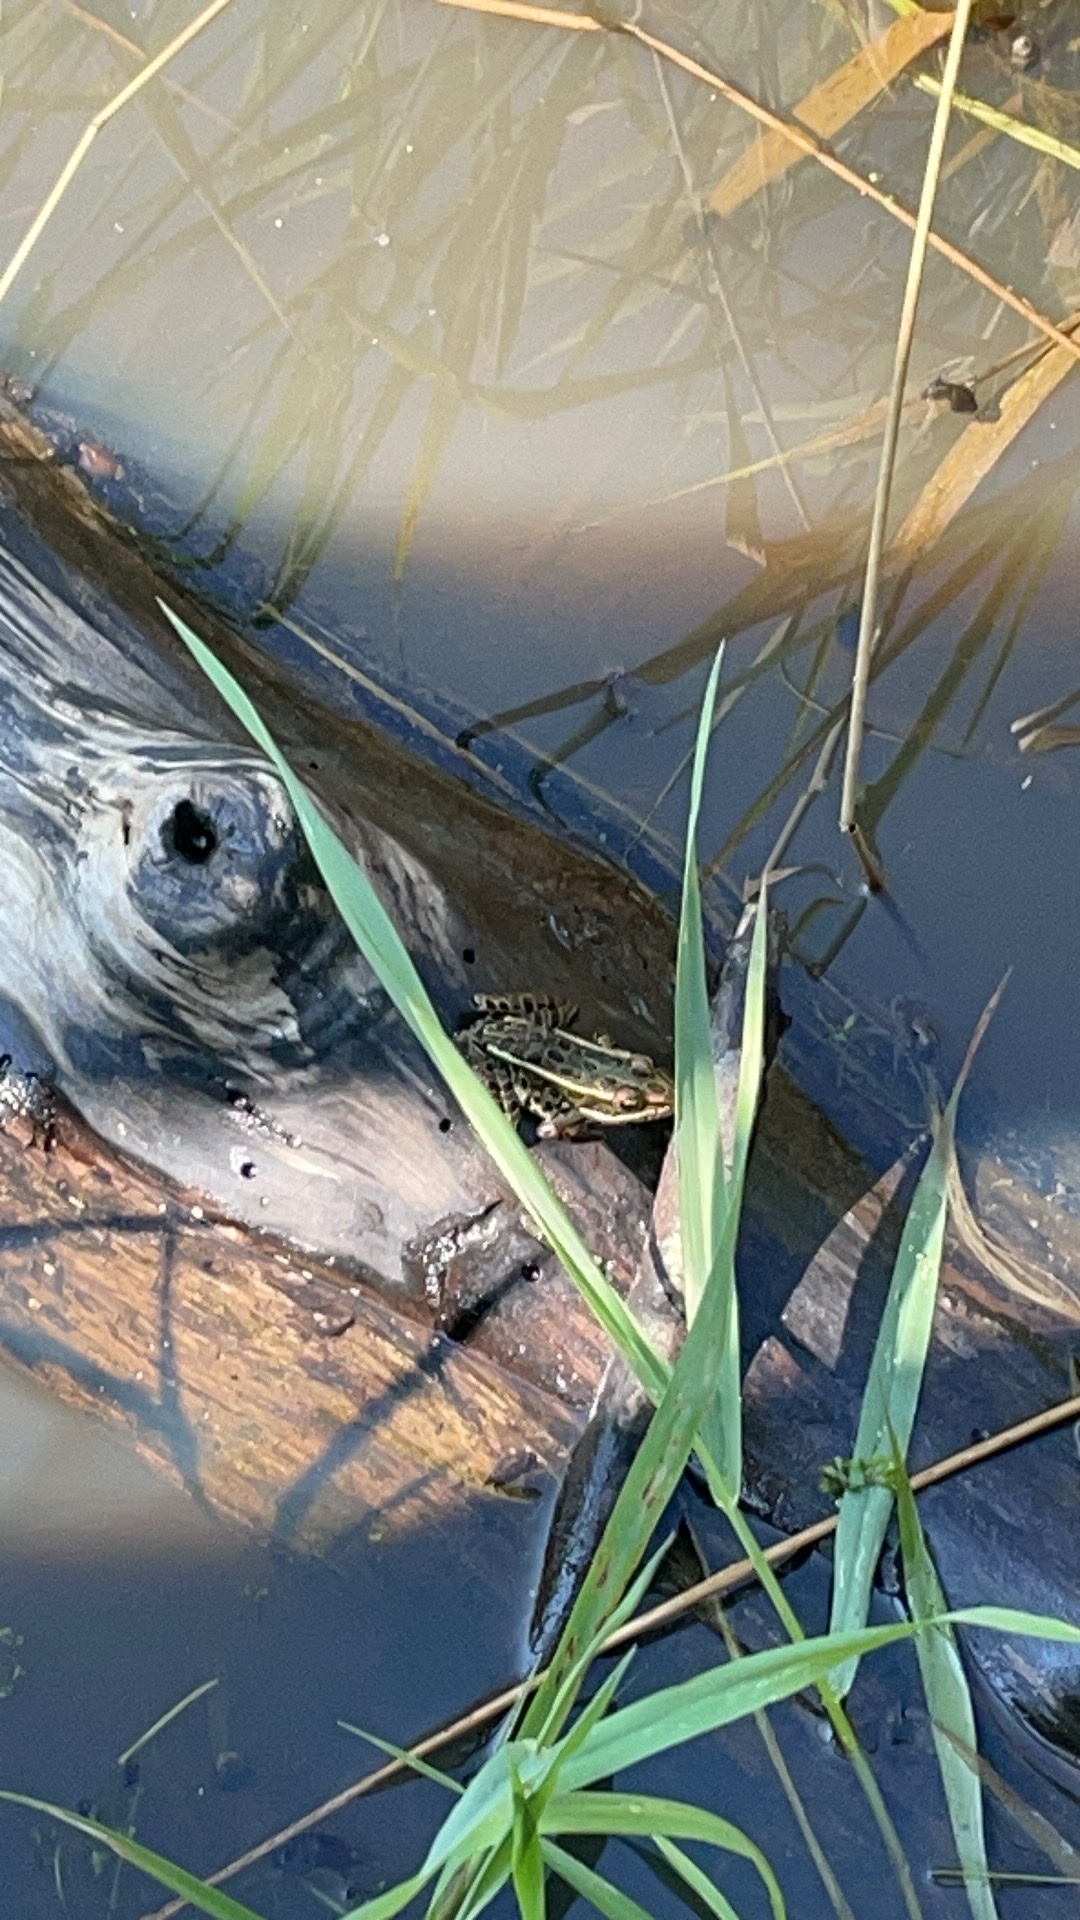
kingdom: Animalia
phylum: Chordata
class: Amphibia
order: Anura
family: Ranidae
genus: Lithobates
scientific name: Lithobates pipiens
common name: Northern leopard frog
